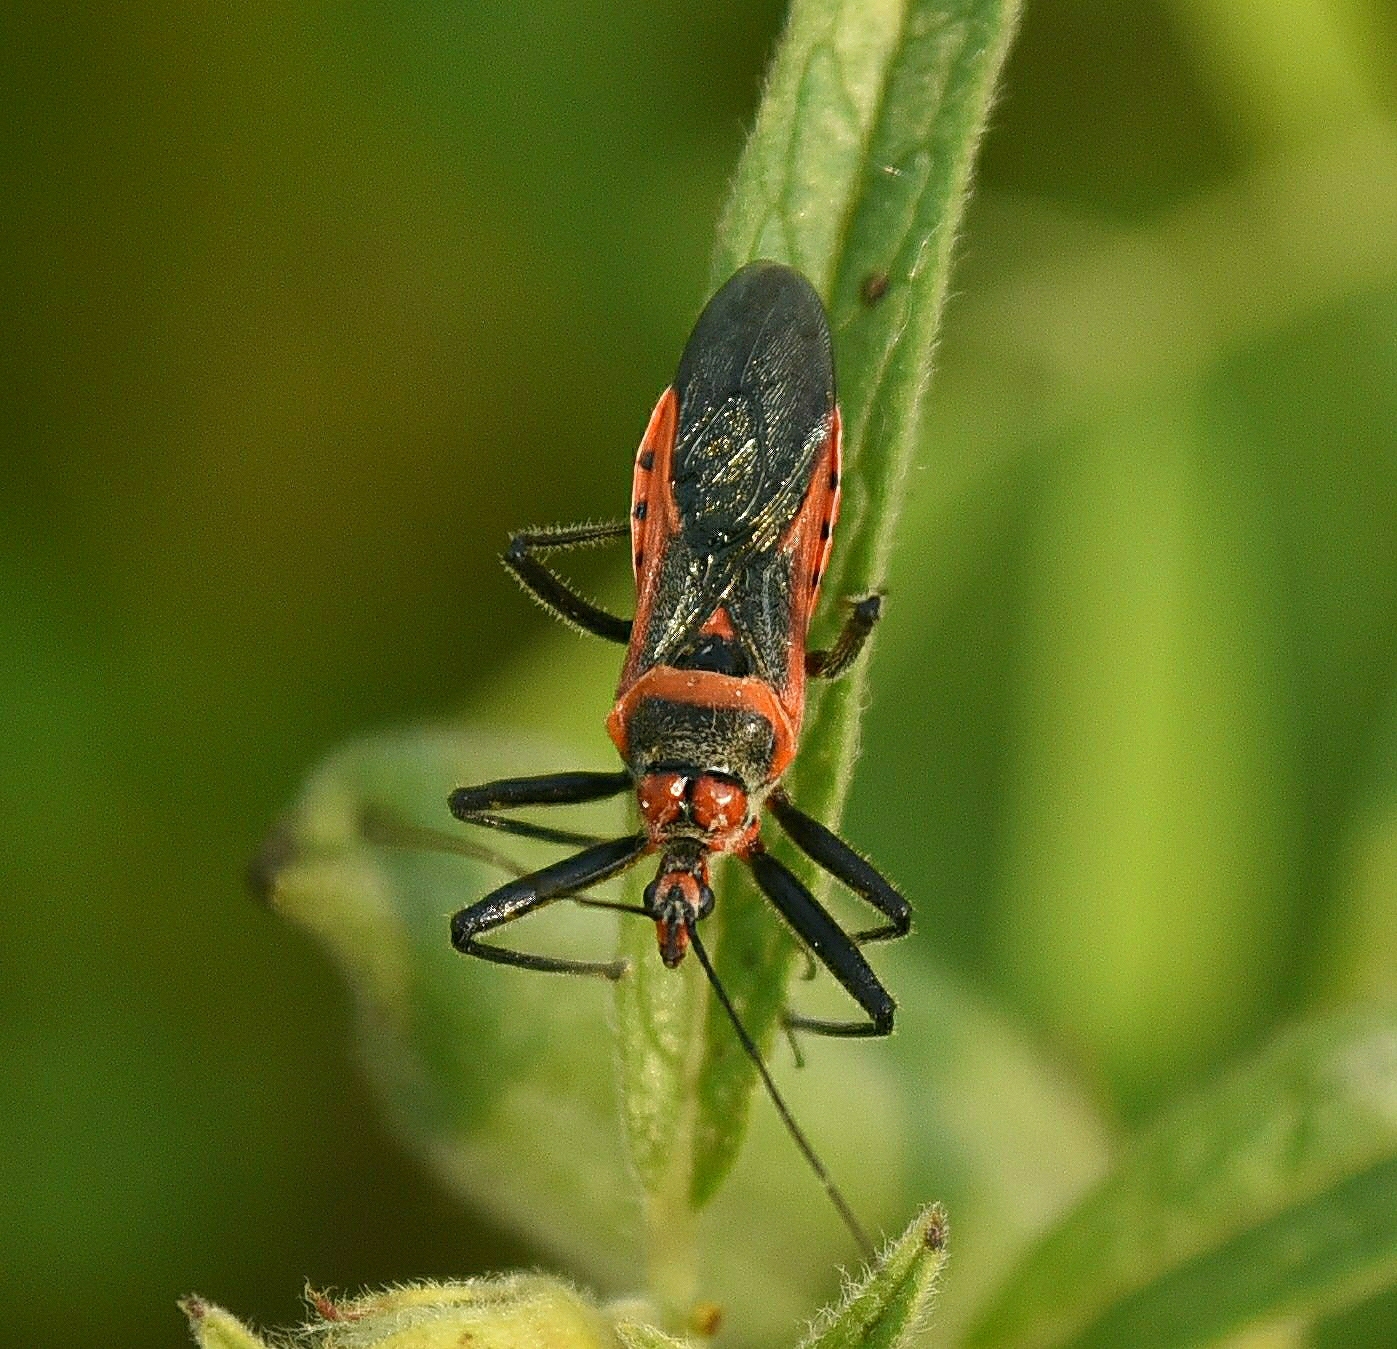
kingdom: Animalia
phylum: Arthropoda
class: Insecta
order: Hemiptera
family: Reduviidae
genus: Rhynocoris
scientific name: Rhynocoris fuscipes
